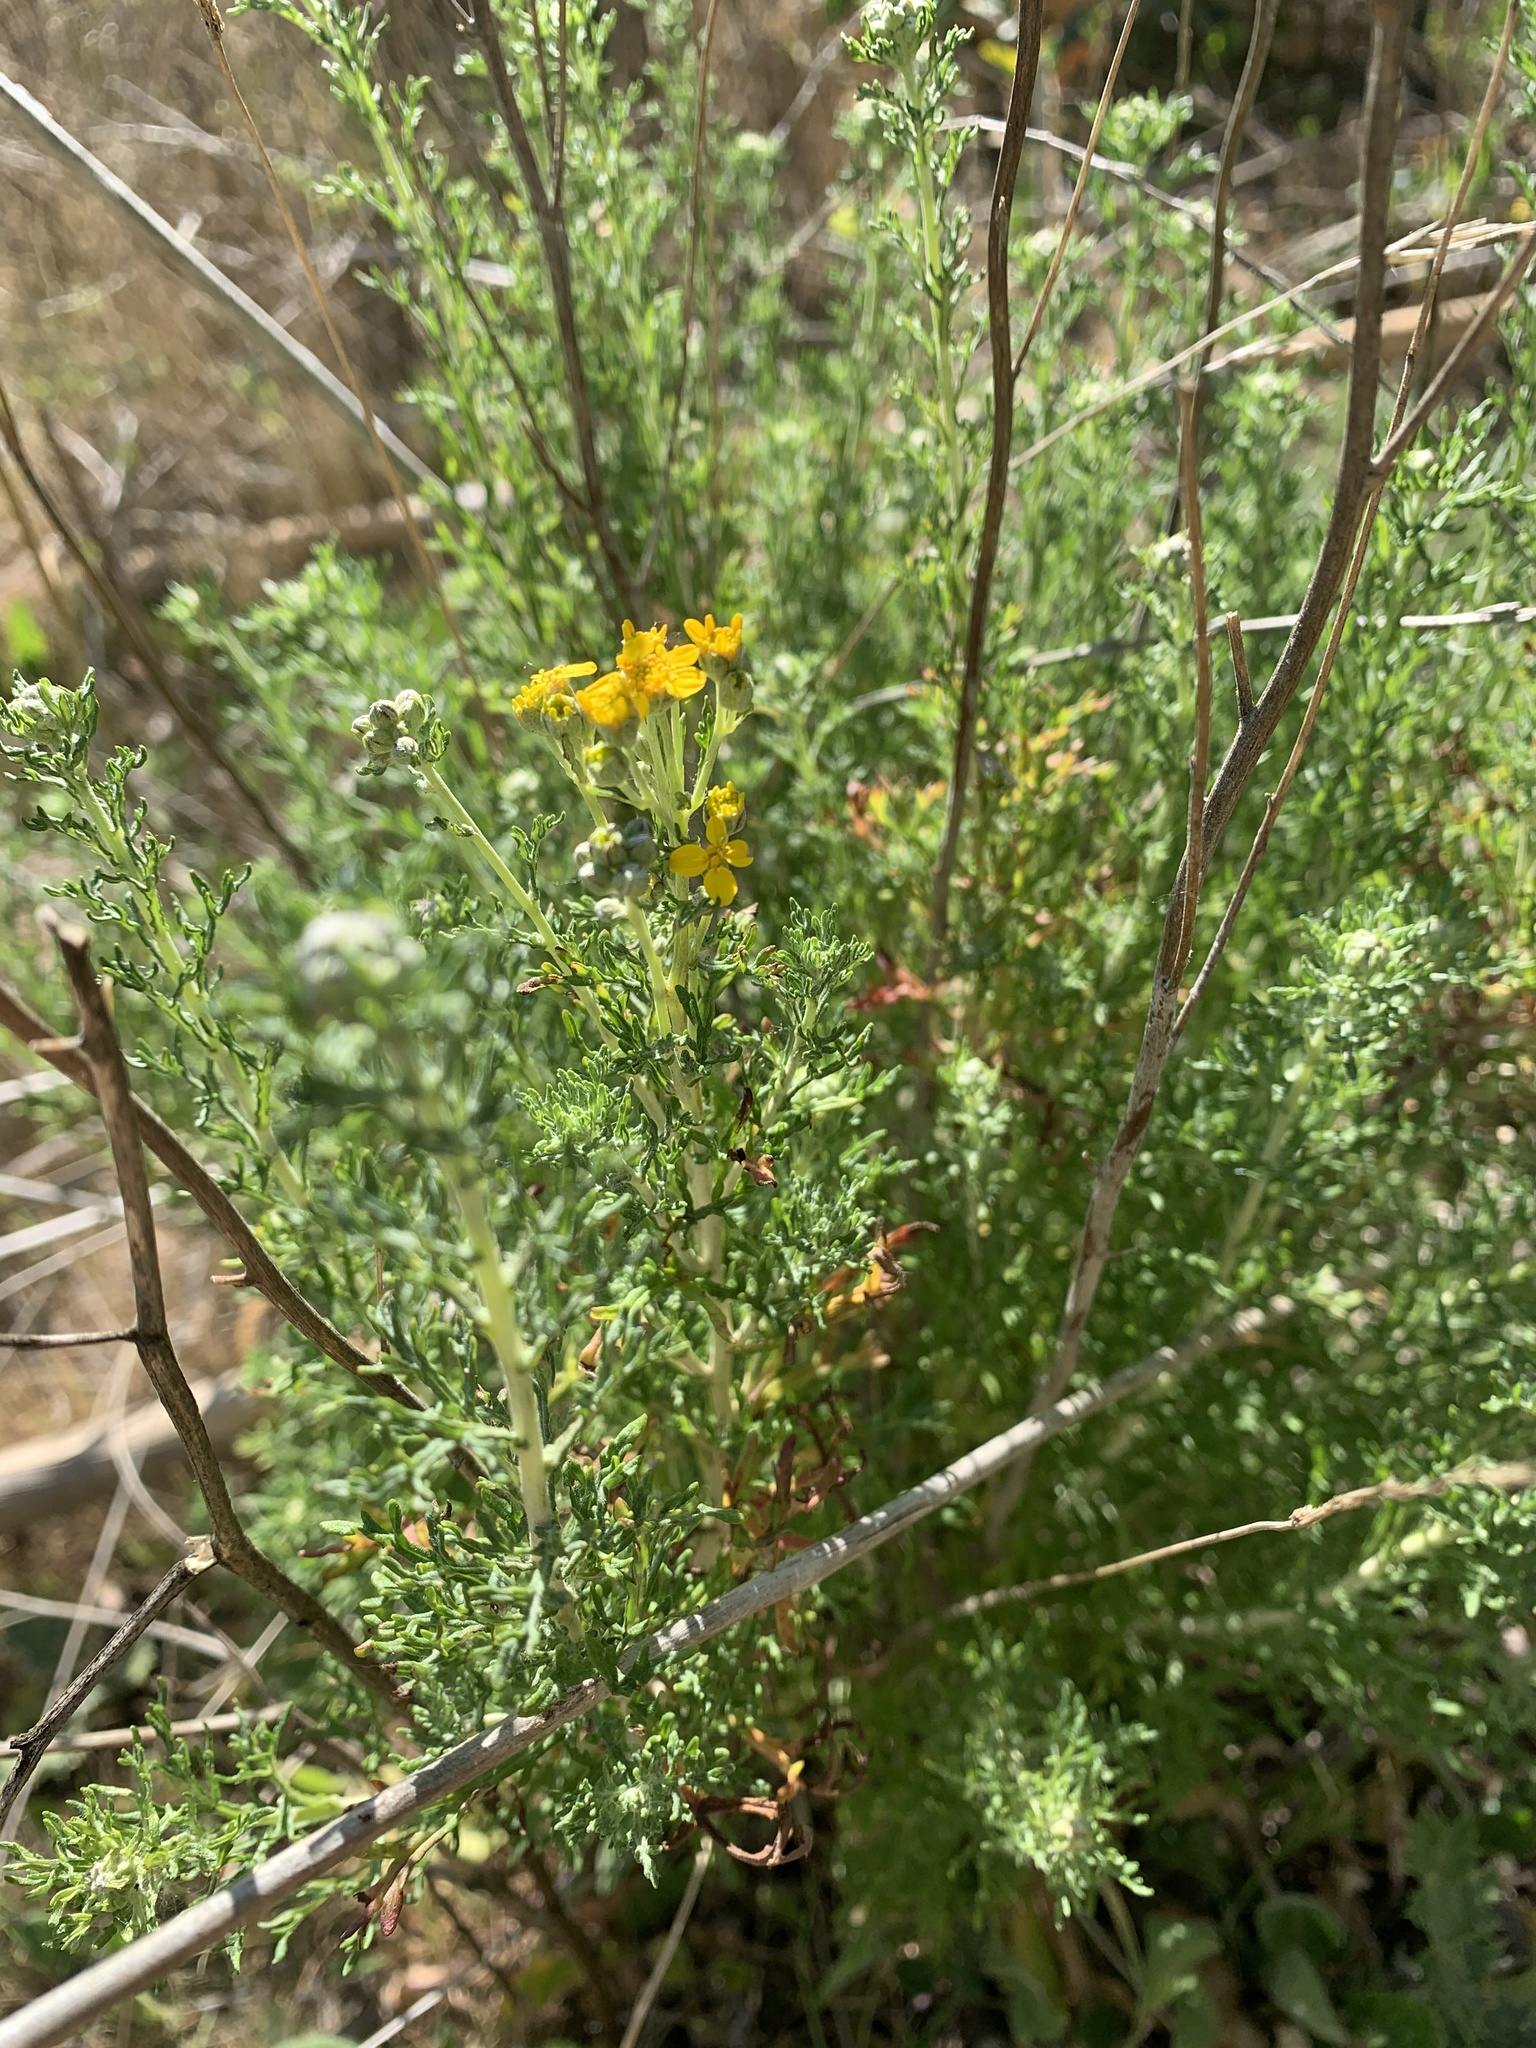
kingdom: Plantae
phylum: Tracheophyta
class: Magnoliopsida
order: Asterales
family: Asteraceae
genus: Eriophyllum
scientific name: Eriophyllum confertiflorum
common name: Golden-yarrow
